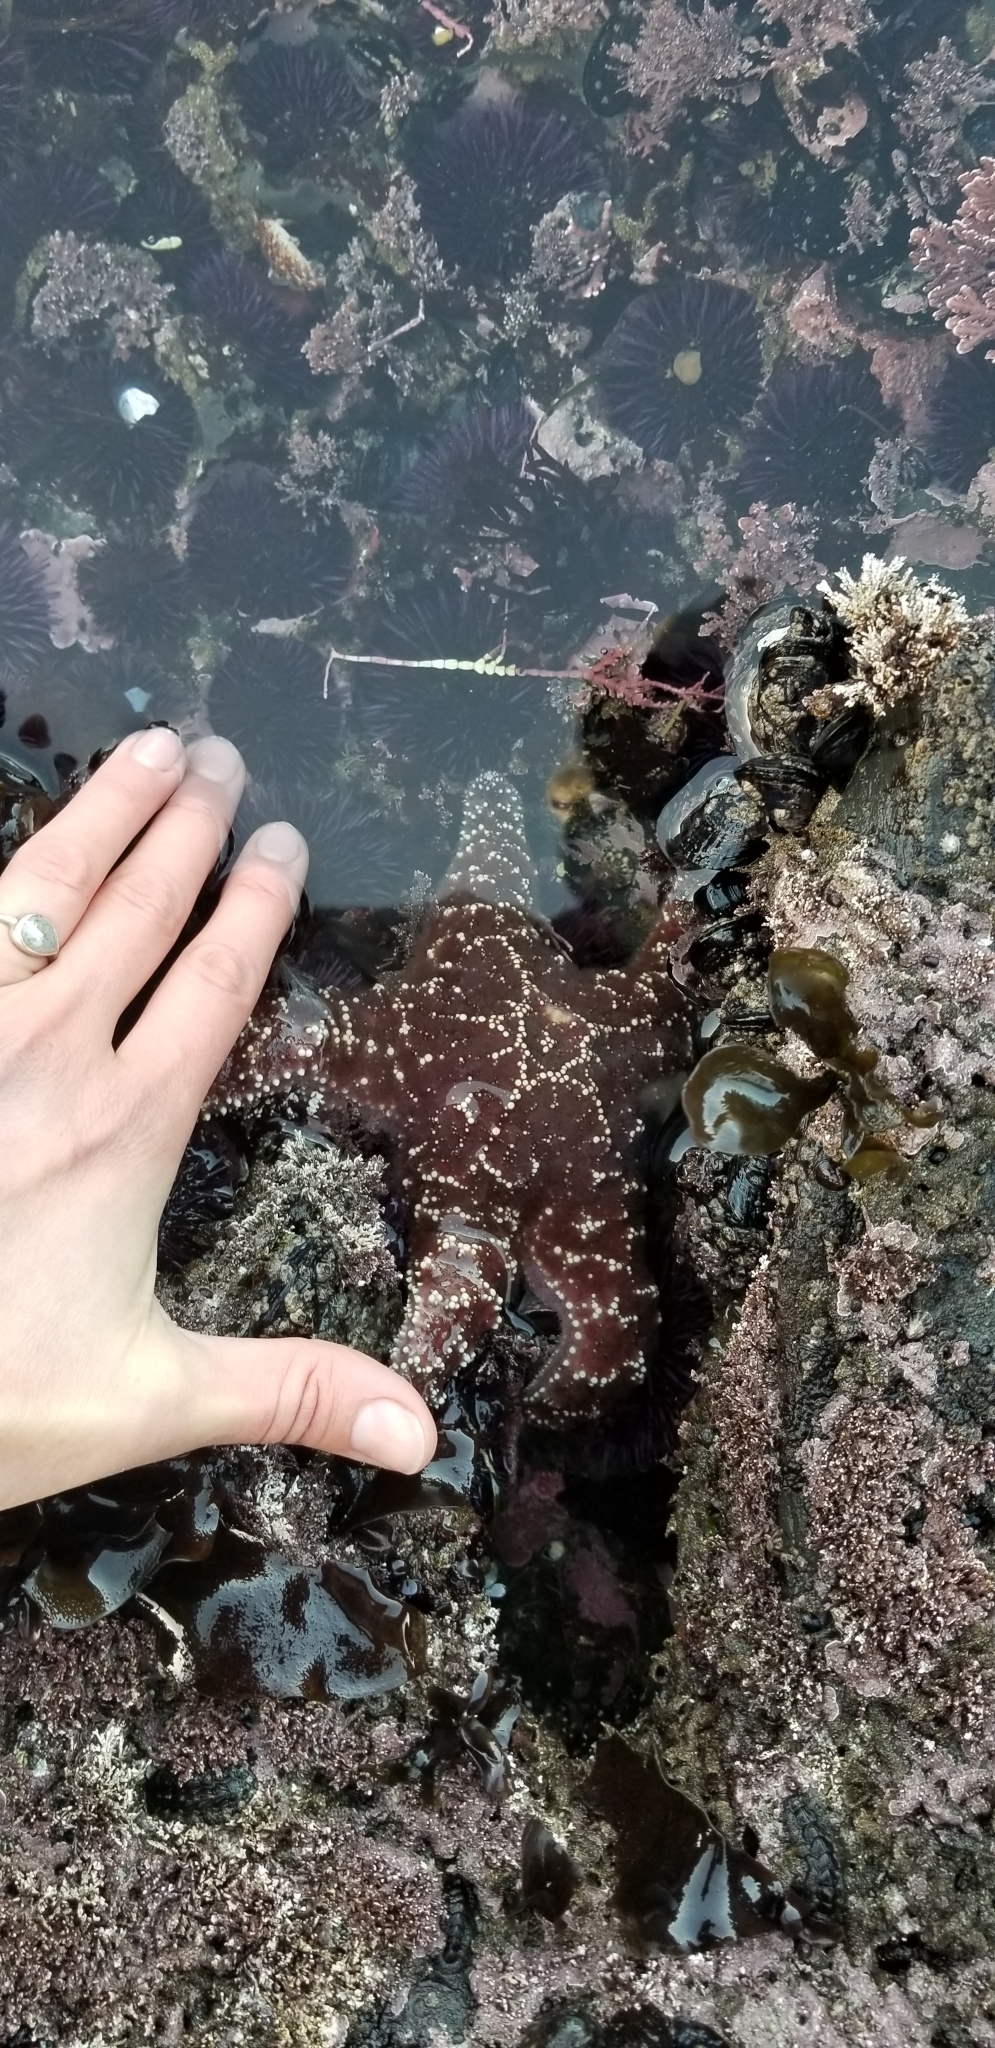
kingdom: Animalia
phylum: Echinodermata
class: Asteroidea
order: Forcipulatida
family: Asteriidae
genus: Pisaster
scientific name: Pisaster ochraceus
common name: Ochre stars
